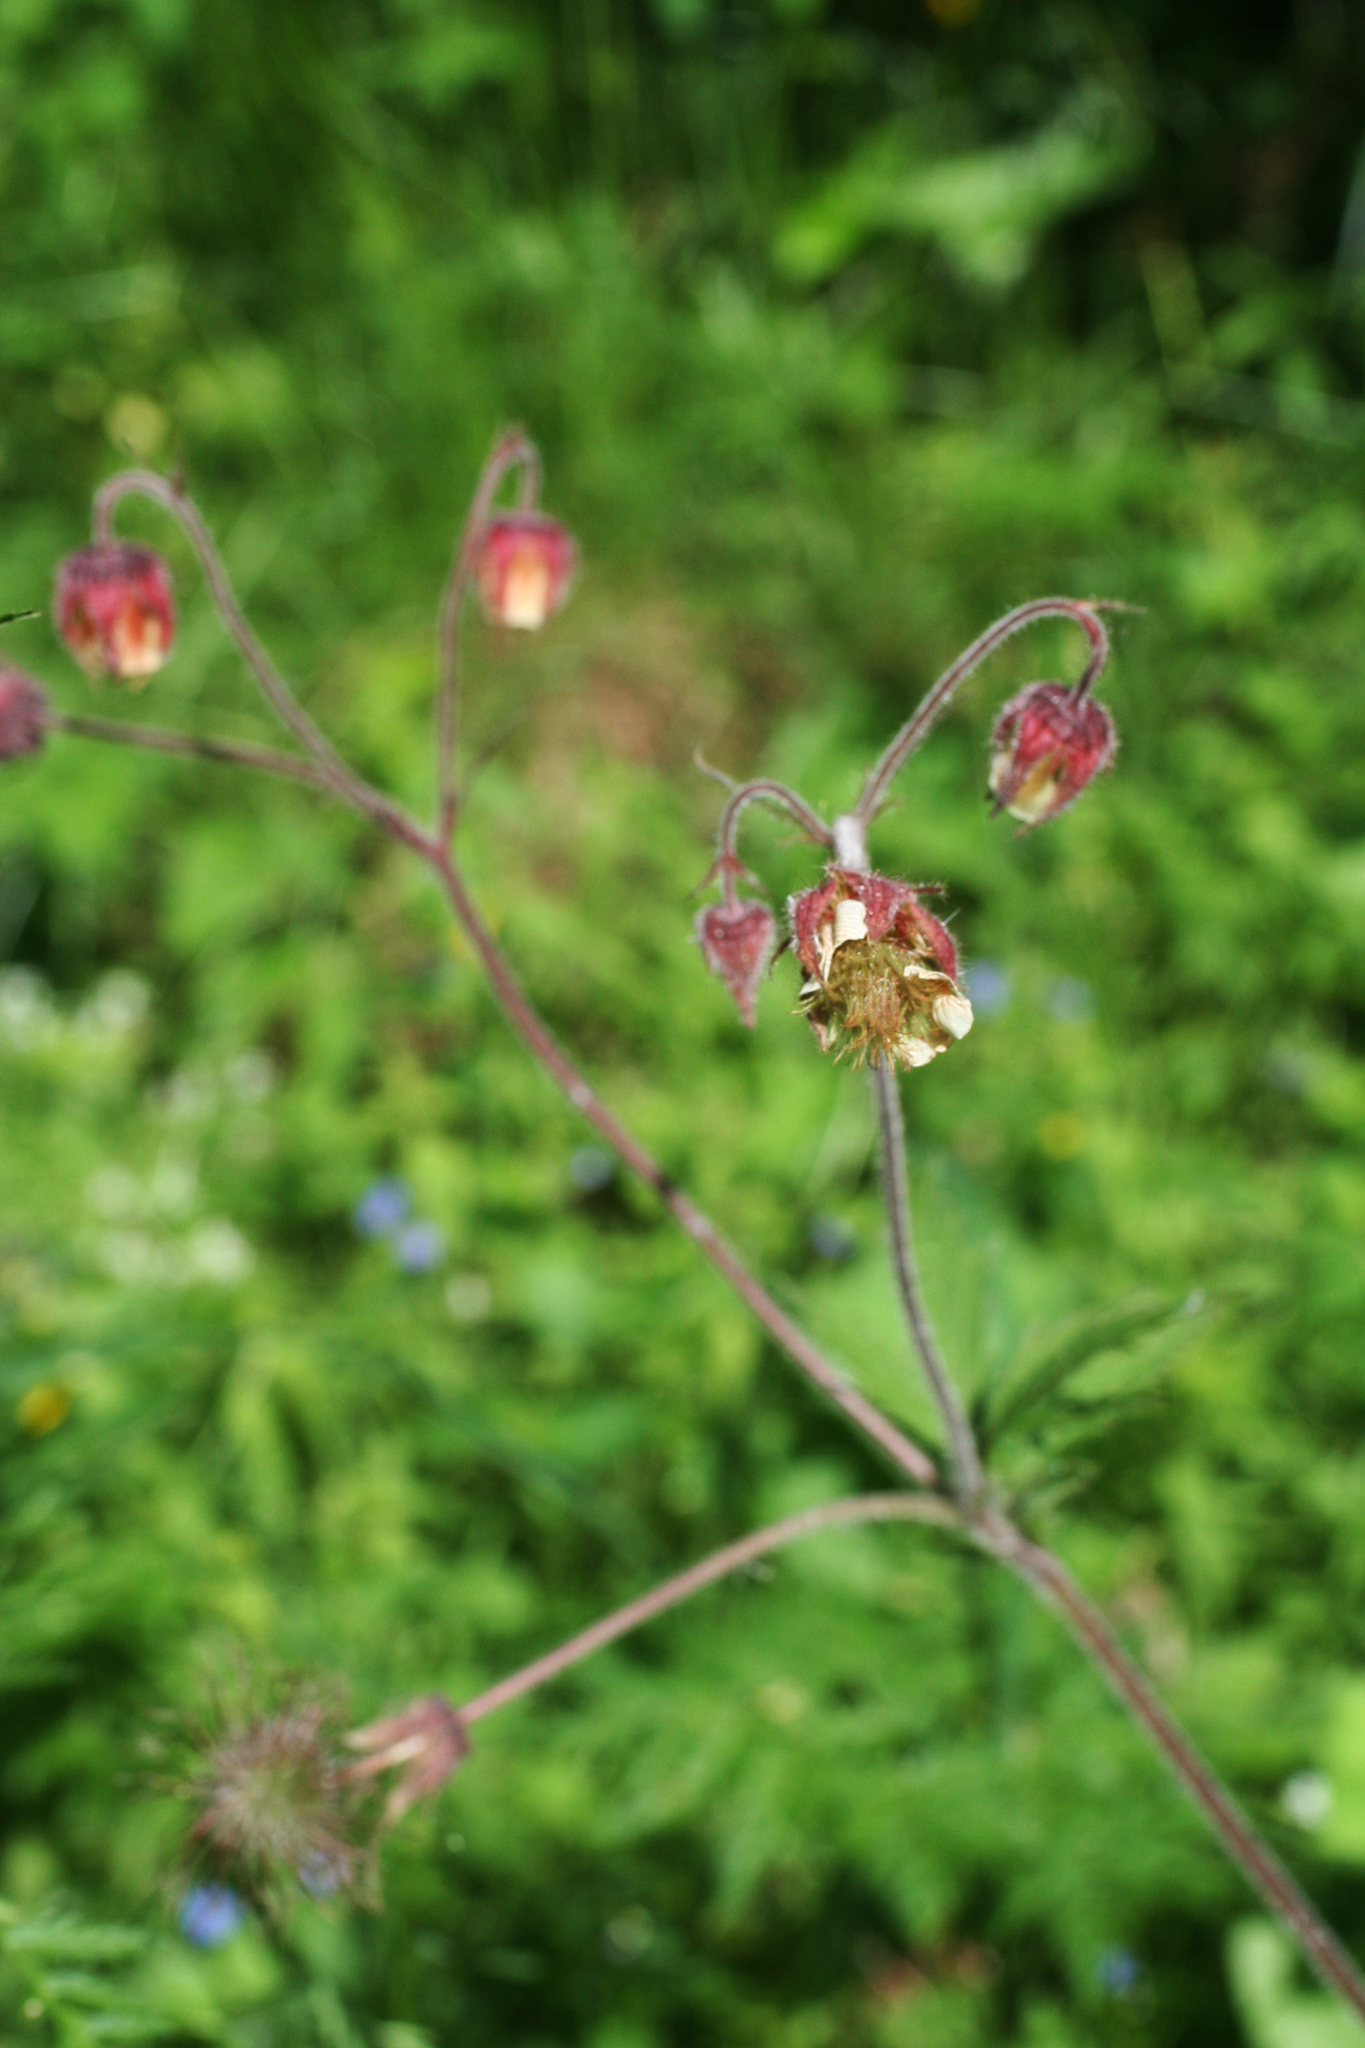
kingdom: Plantae
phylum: Tracheophyta
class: Magnoliopsida
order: Rosales
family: Rosaceae
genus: Geum
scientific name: Geum rivale
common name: Water avens
